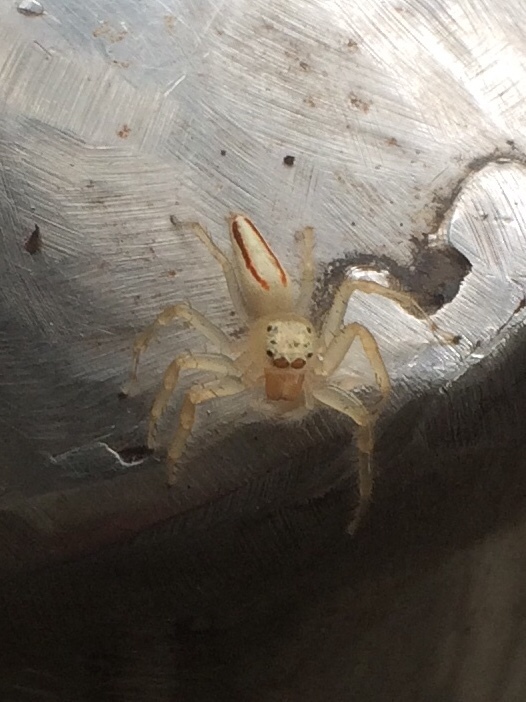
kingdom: Animalia
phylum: Arthropoda
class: Arachnida
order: Araneae
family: Salticidae
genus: Telamonia
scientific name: Telamonia dimidiata
